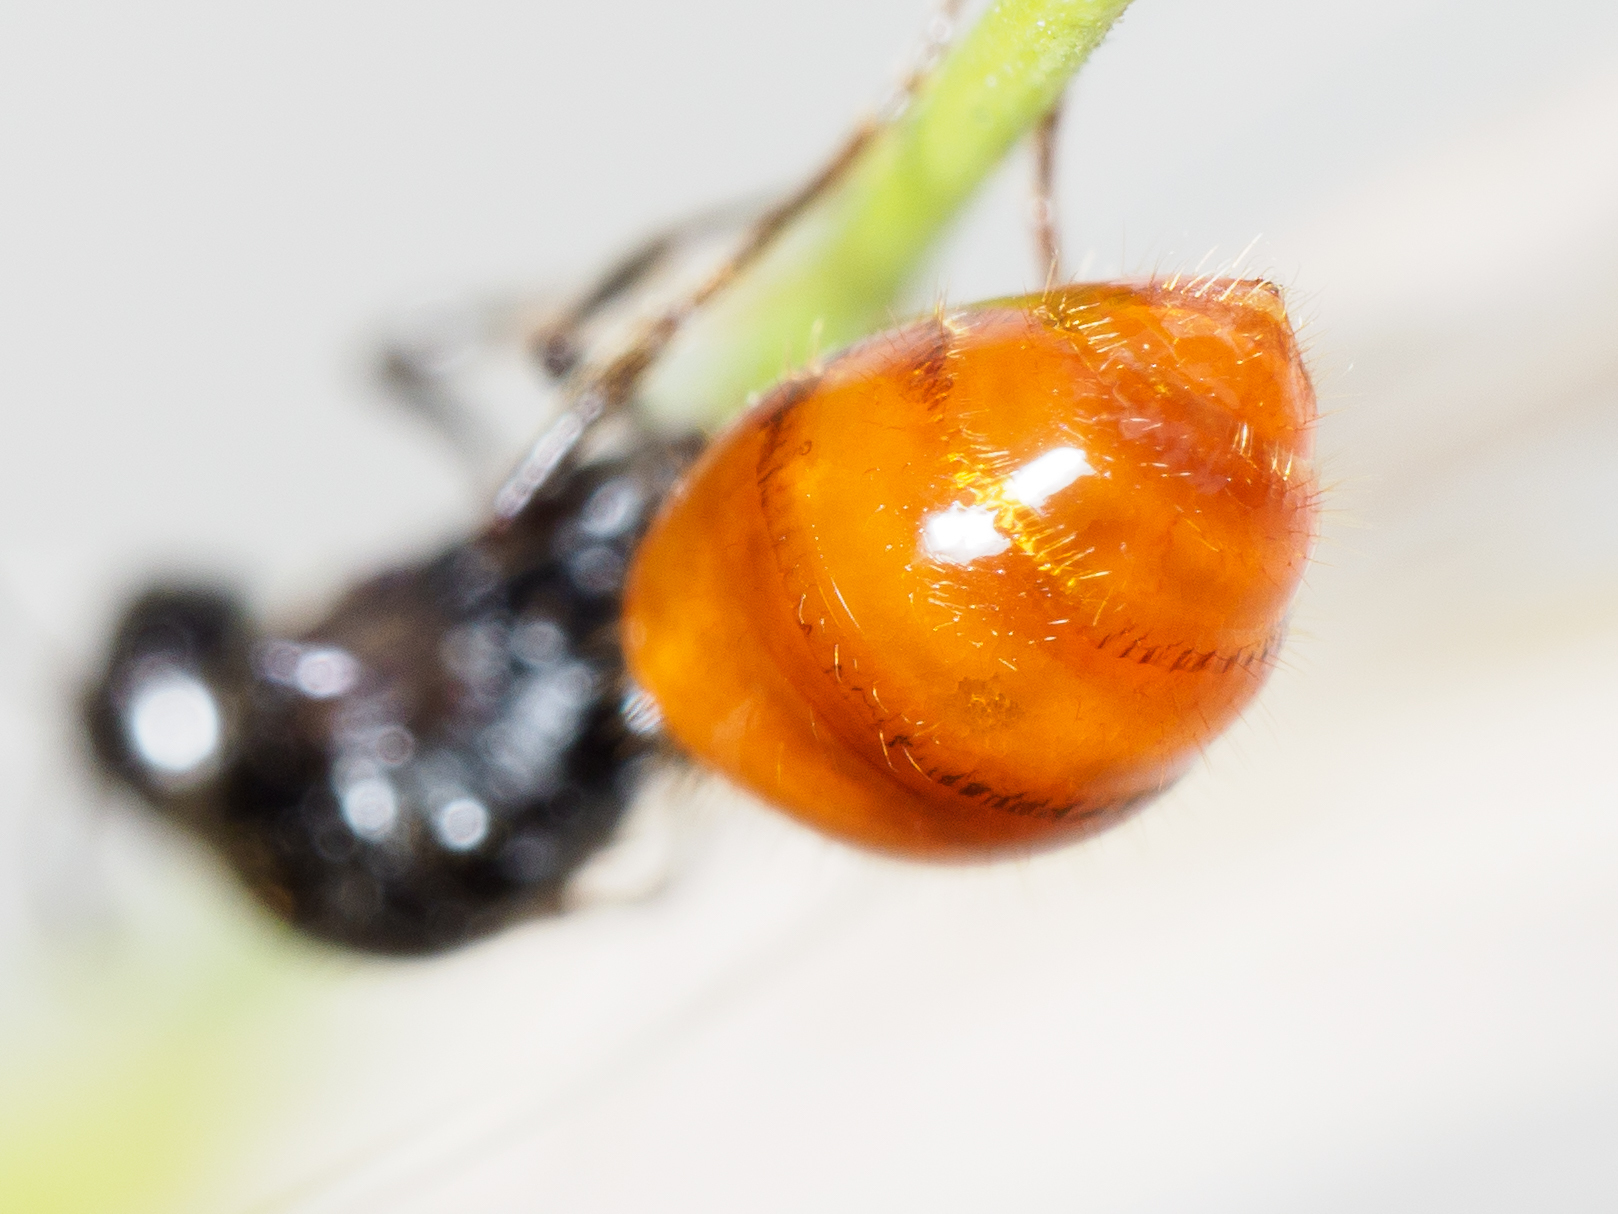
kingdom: Animalia
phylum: Arthropoda
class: Insecta
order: Hymenoptera
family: Formicidae
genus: Chelaner
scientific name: Chelaner
